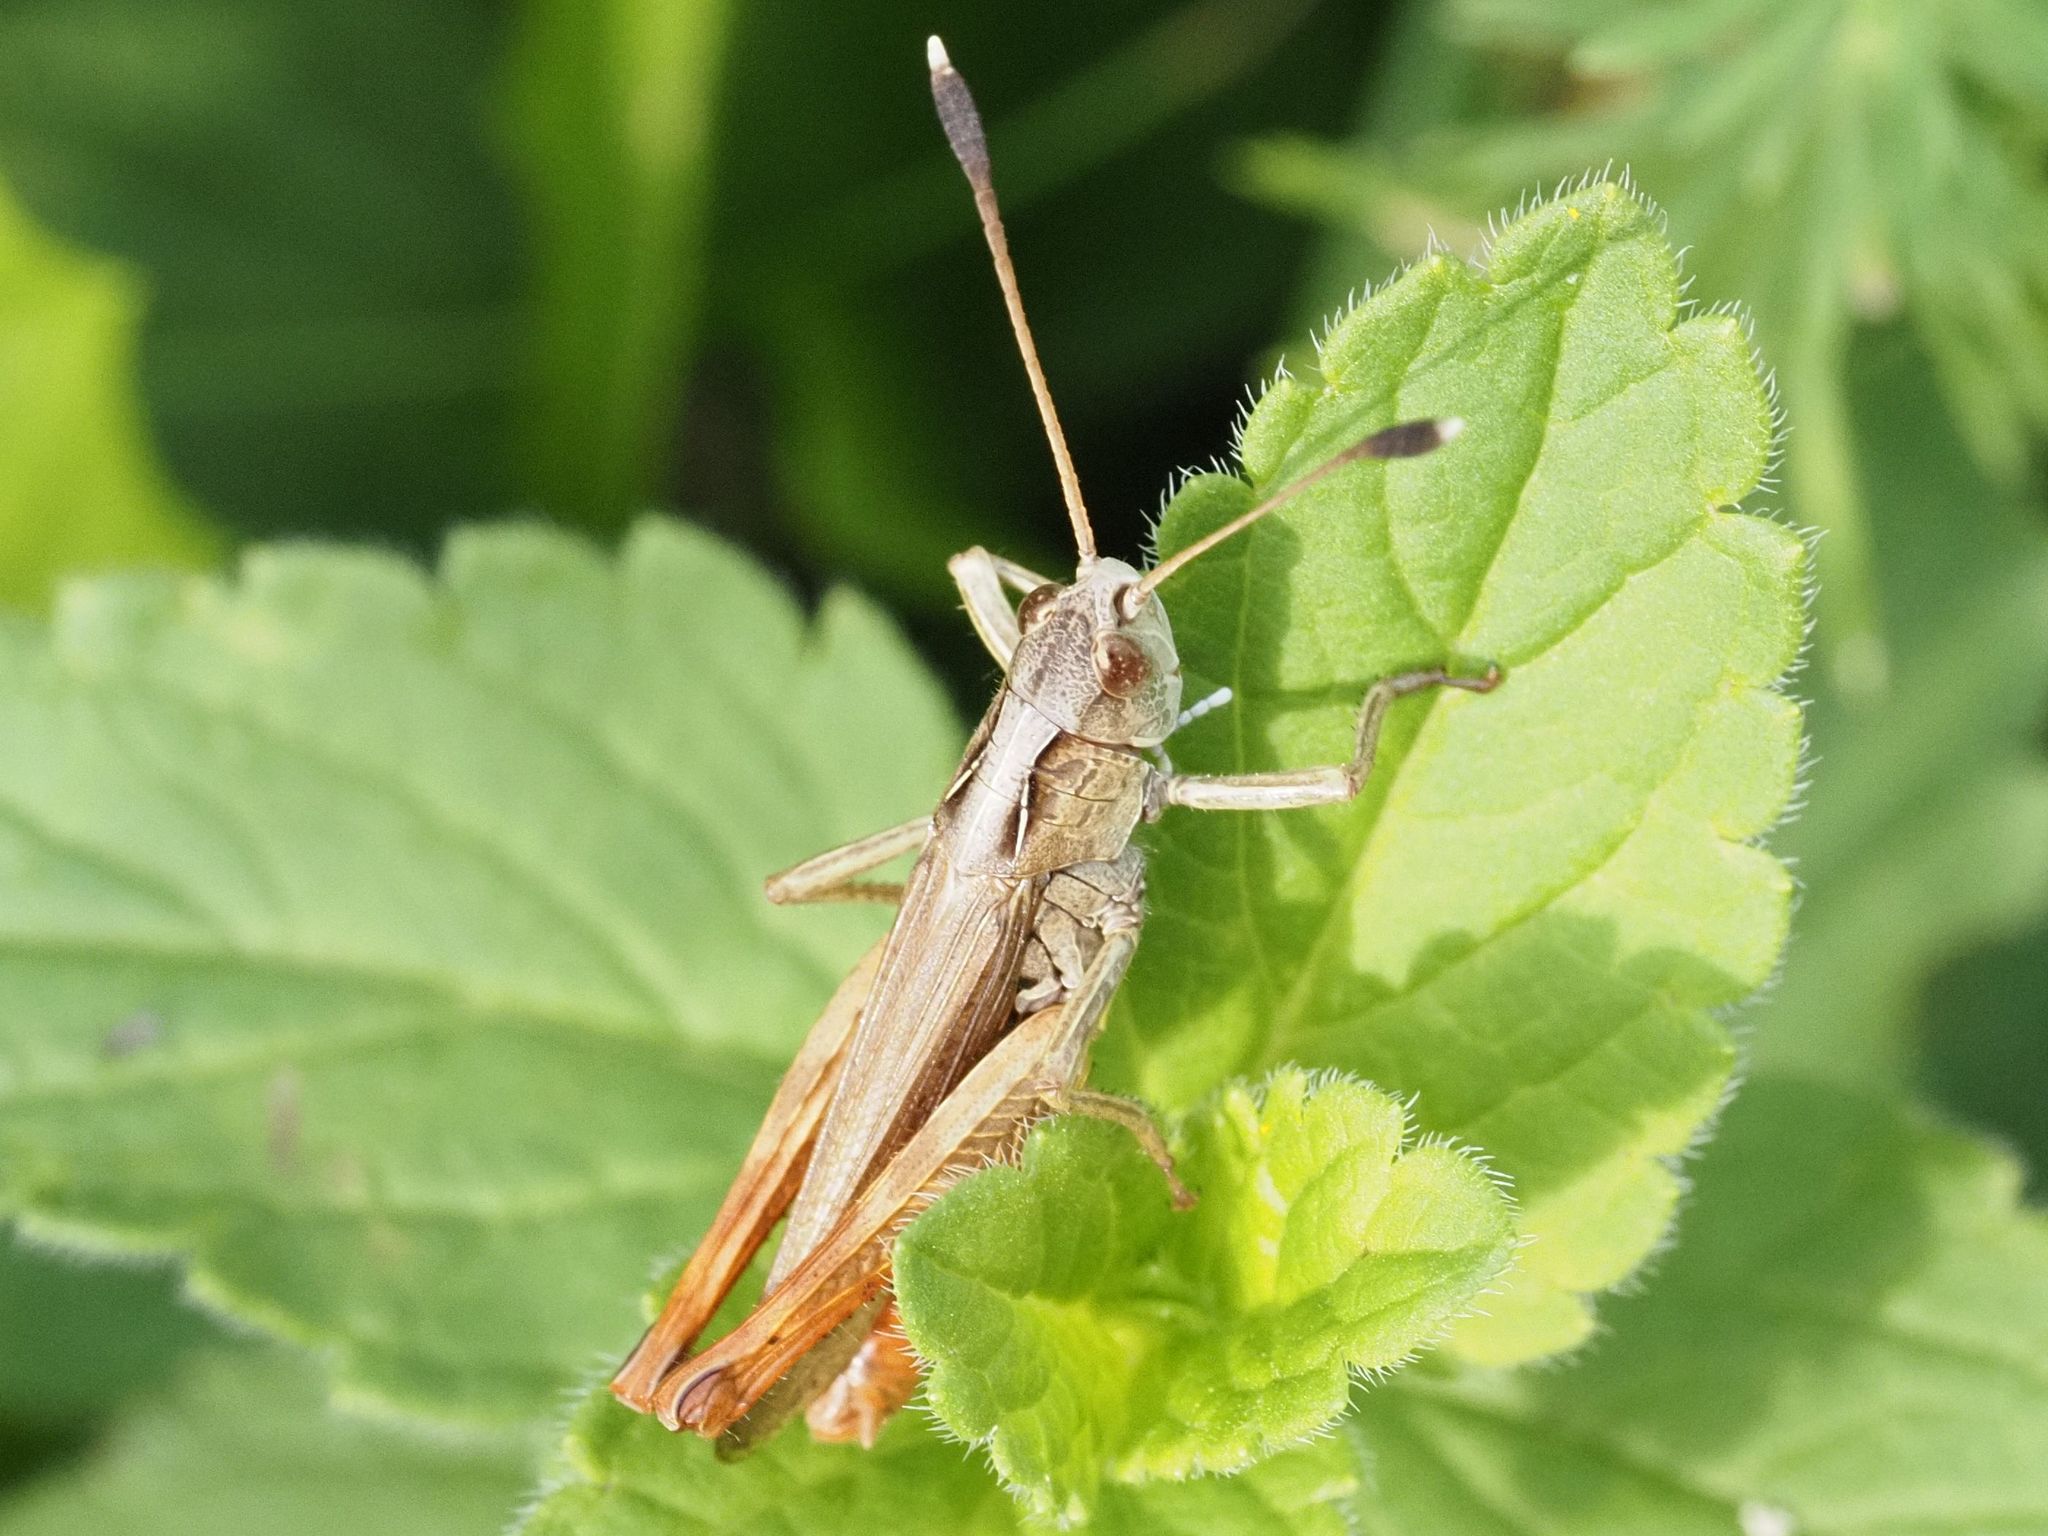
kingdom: Animalia
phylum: Arthropoda
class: Insecta
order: Orthoptera
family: Acrididae
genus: Gomphocerippus
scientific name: Gomphocerippus rufus
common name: Rufous grasshopper
